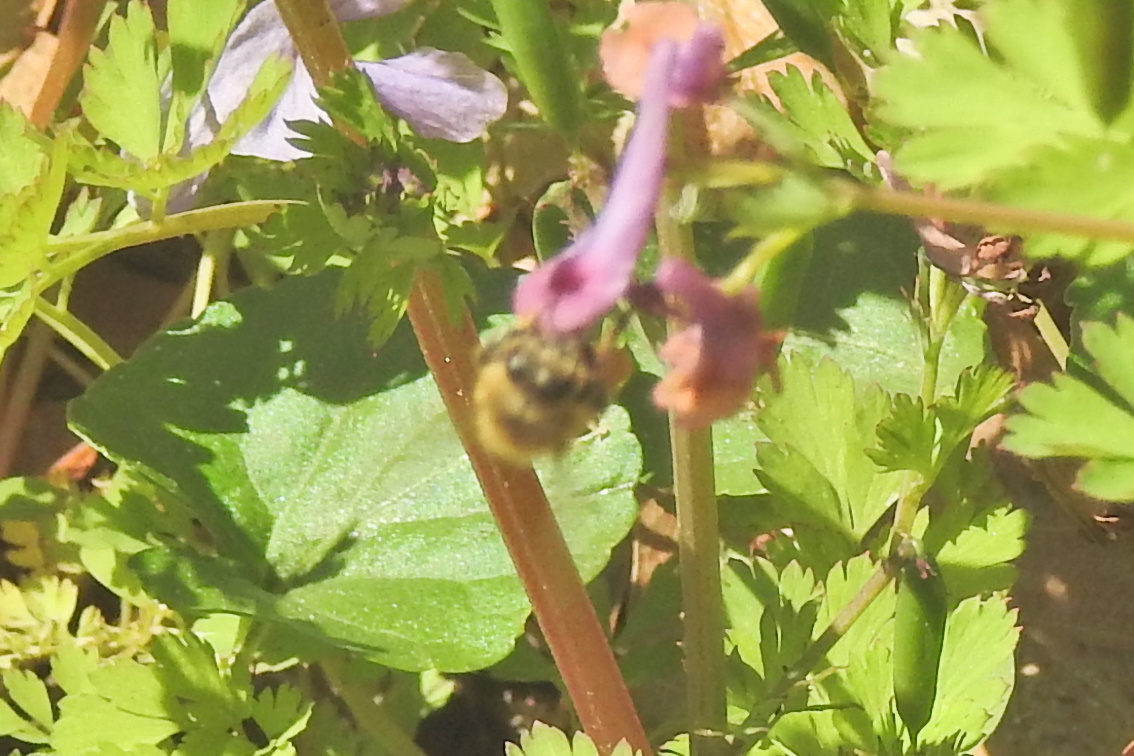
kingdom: Animalia
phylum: Arthropoda
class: Insecta
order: Hymenoptera
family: Apidae
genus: Apis
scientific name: Apis mellifera
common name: Honey bee
